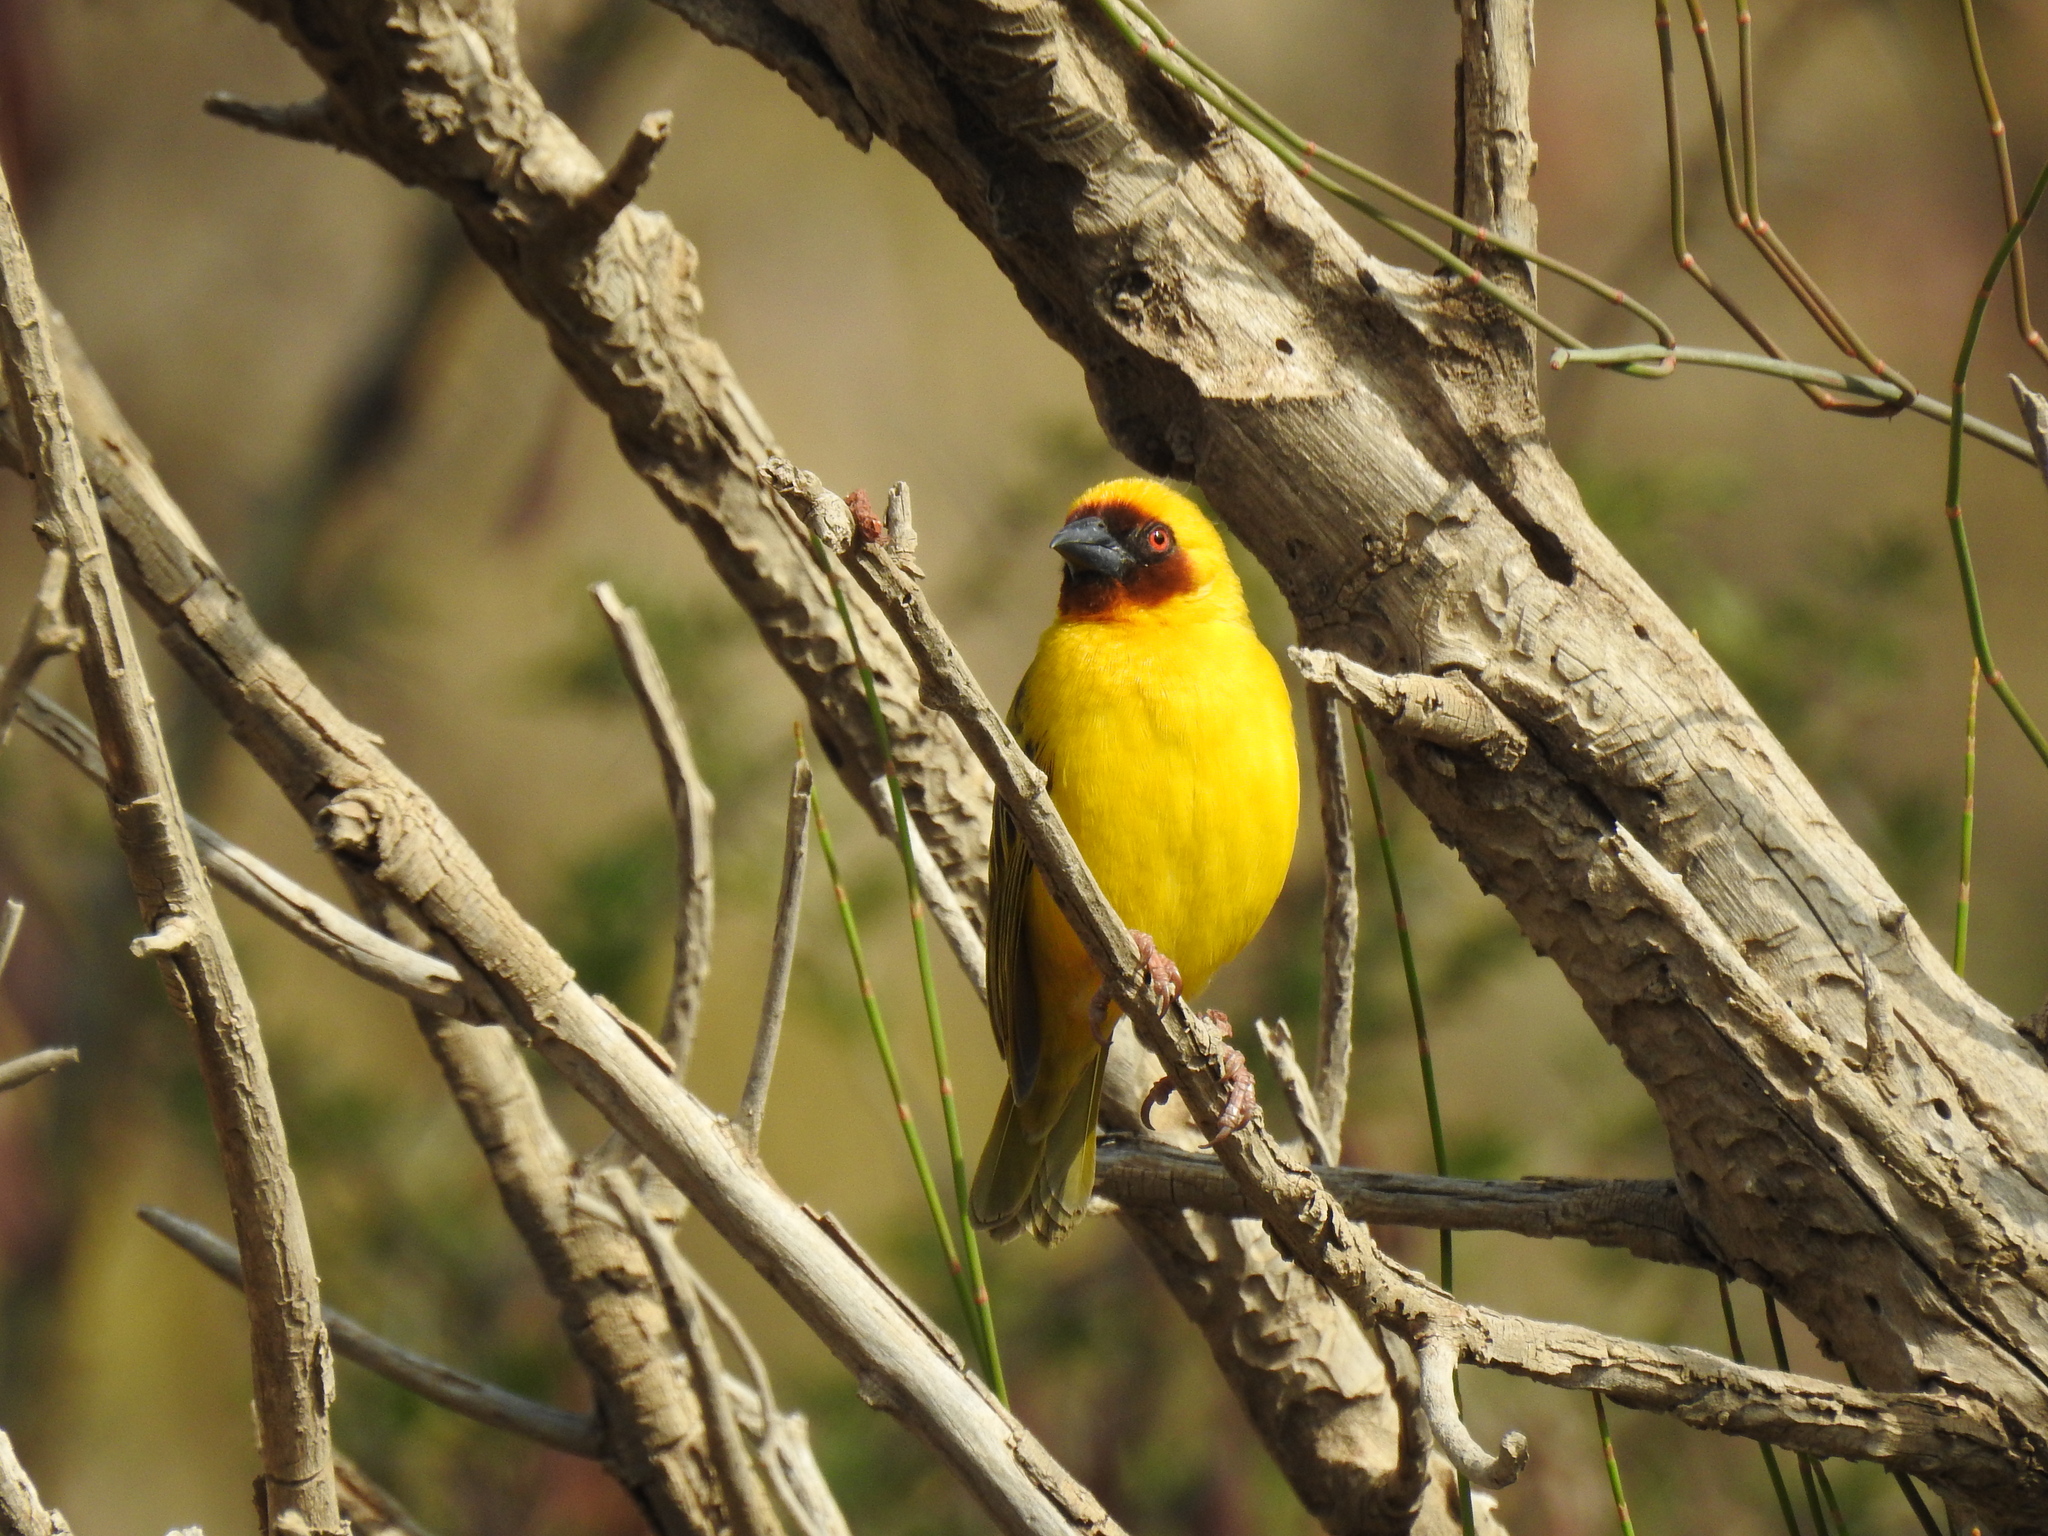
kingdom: Animalia
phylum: Chordata
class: Aves
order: Passeriformes
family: Ploceidae
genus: Ploceus
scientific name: Ploceus galbula
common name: Rüppell's weaver
